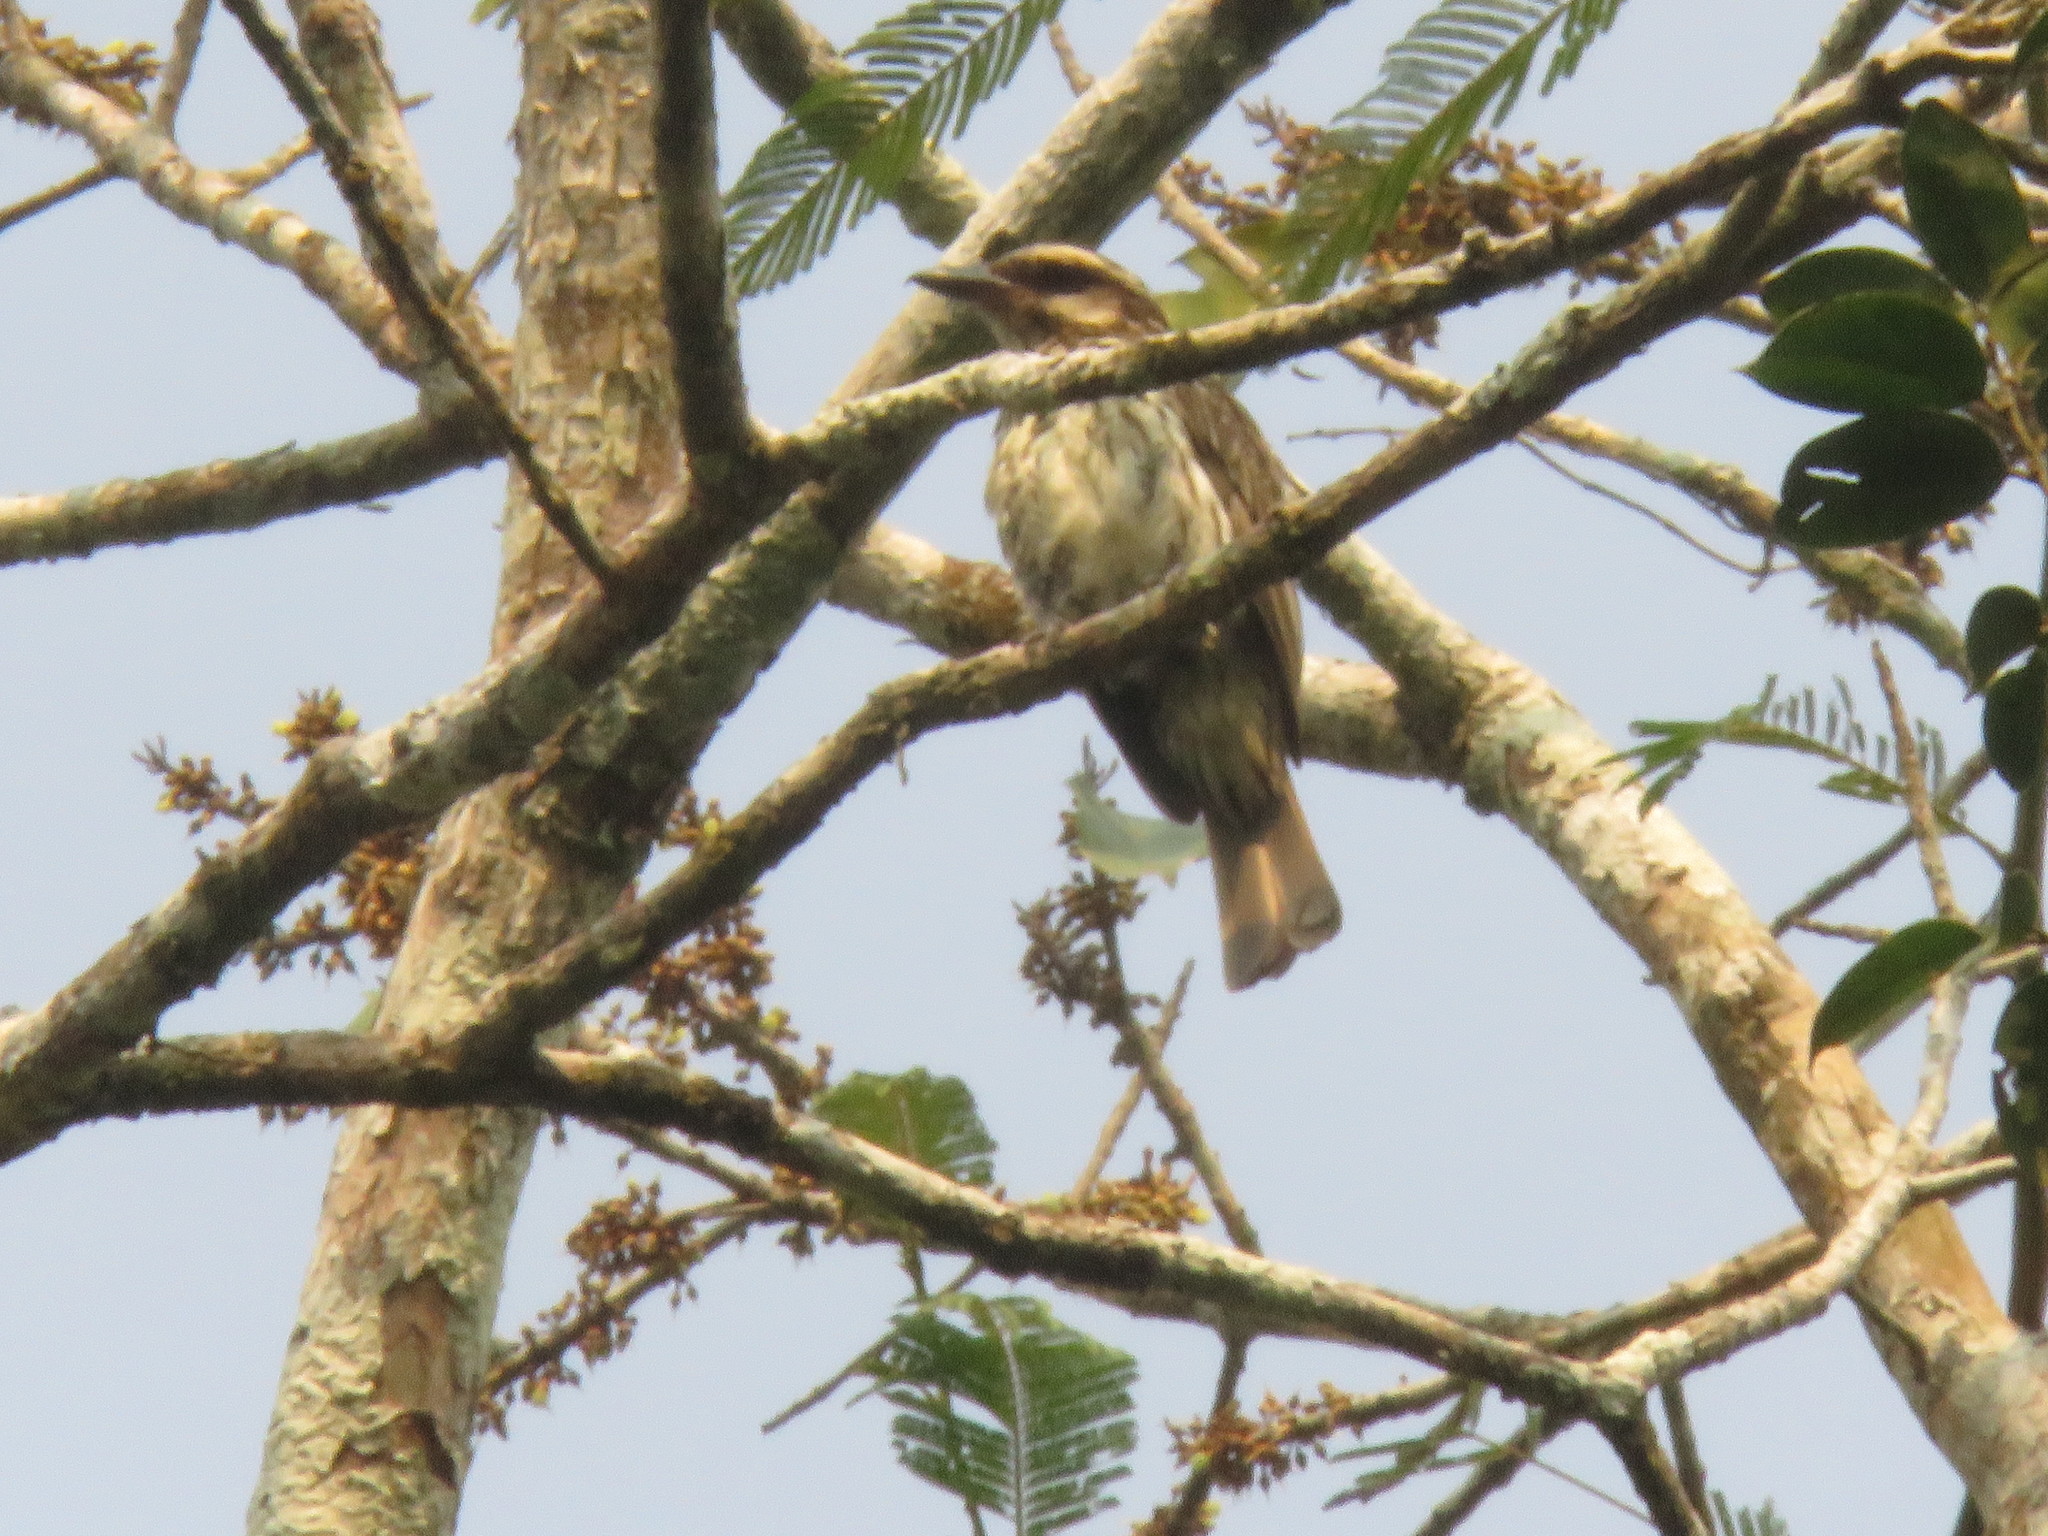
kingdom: Animalia
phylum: Chordata
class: Aves
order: Passeriformes
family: Tyrannidae
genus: Myiodynastes
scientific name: Myiodynastes maculatus
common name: Streaked flycatcher
